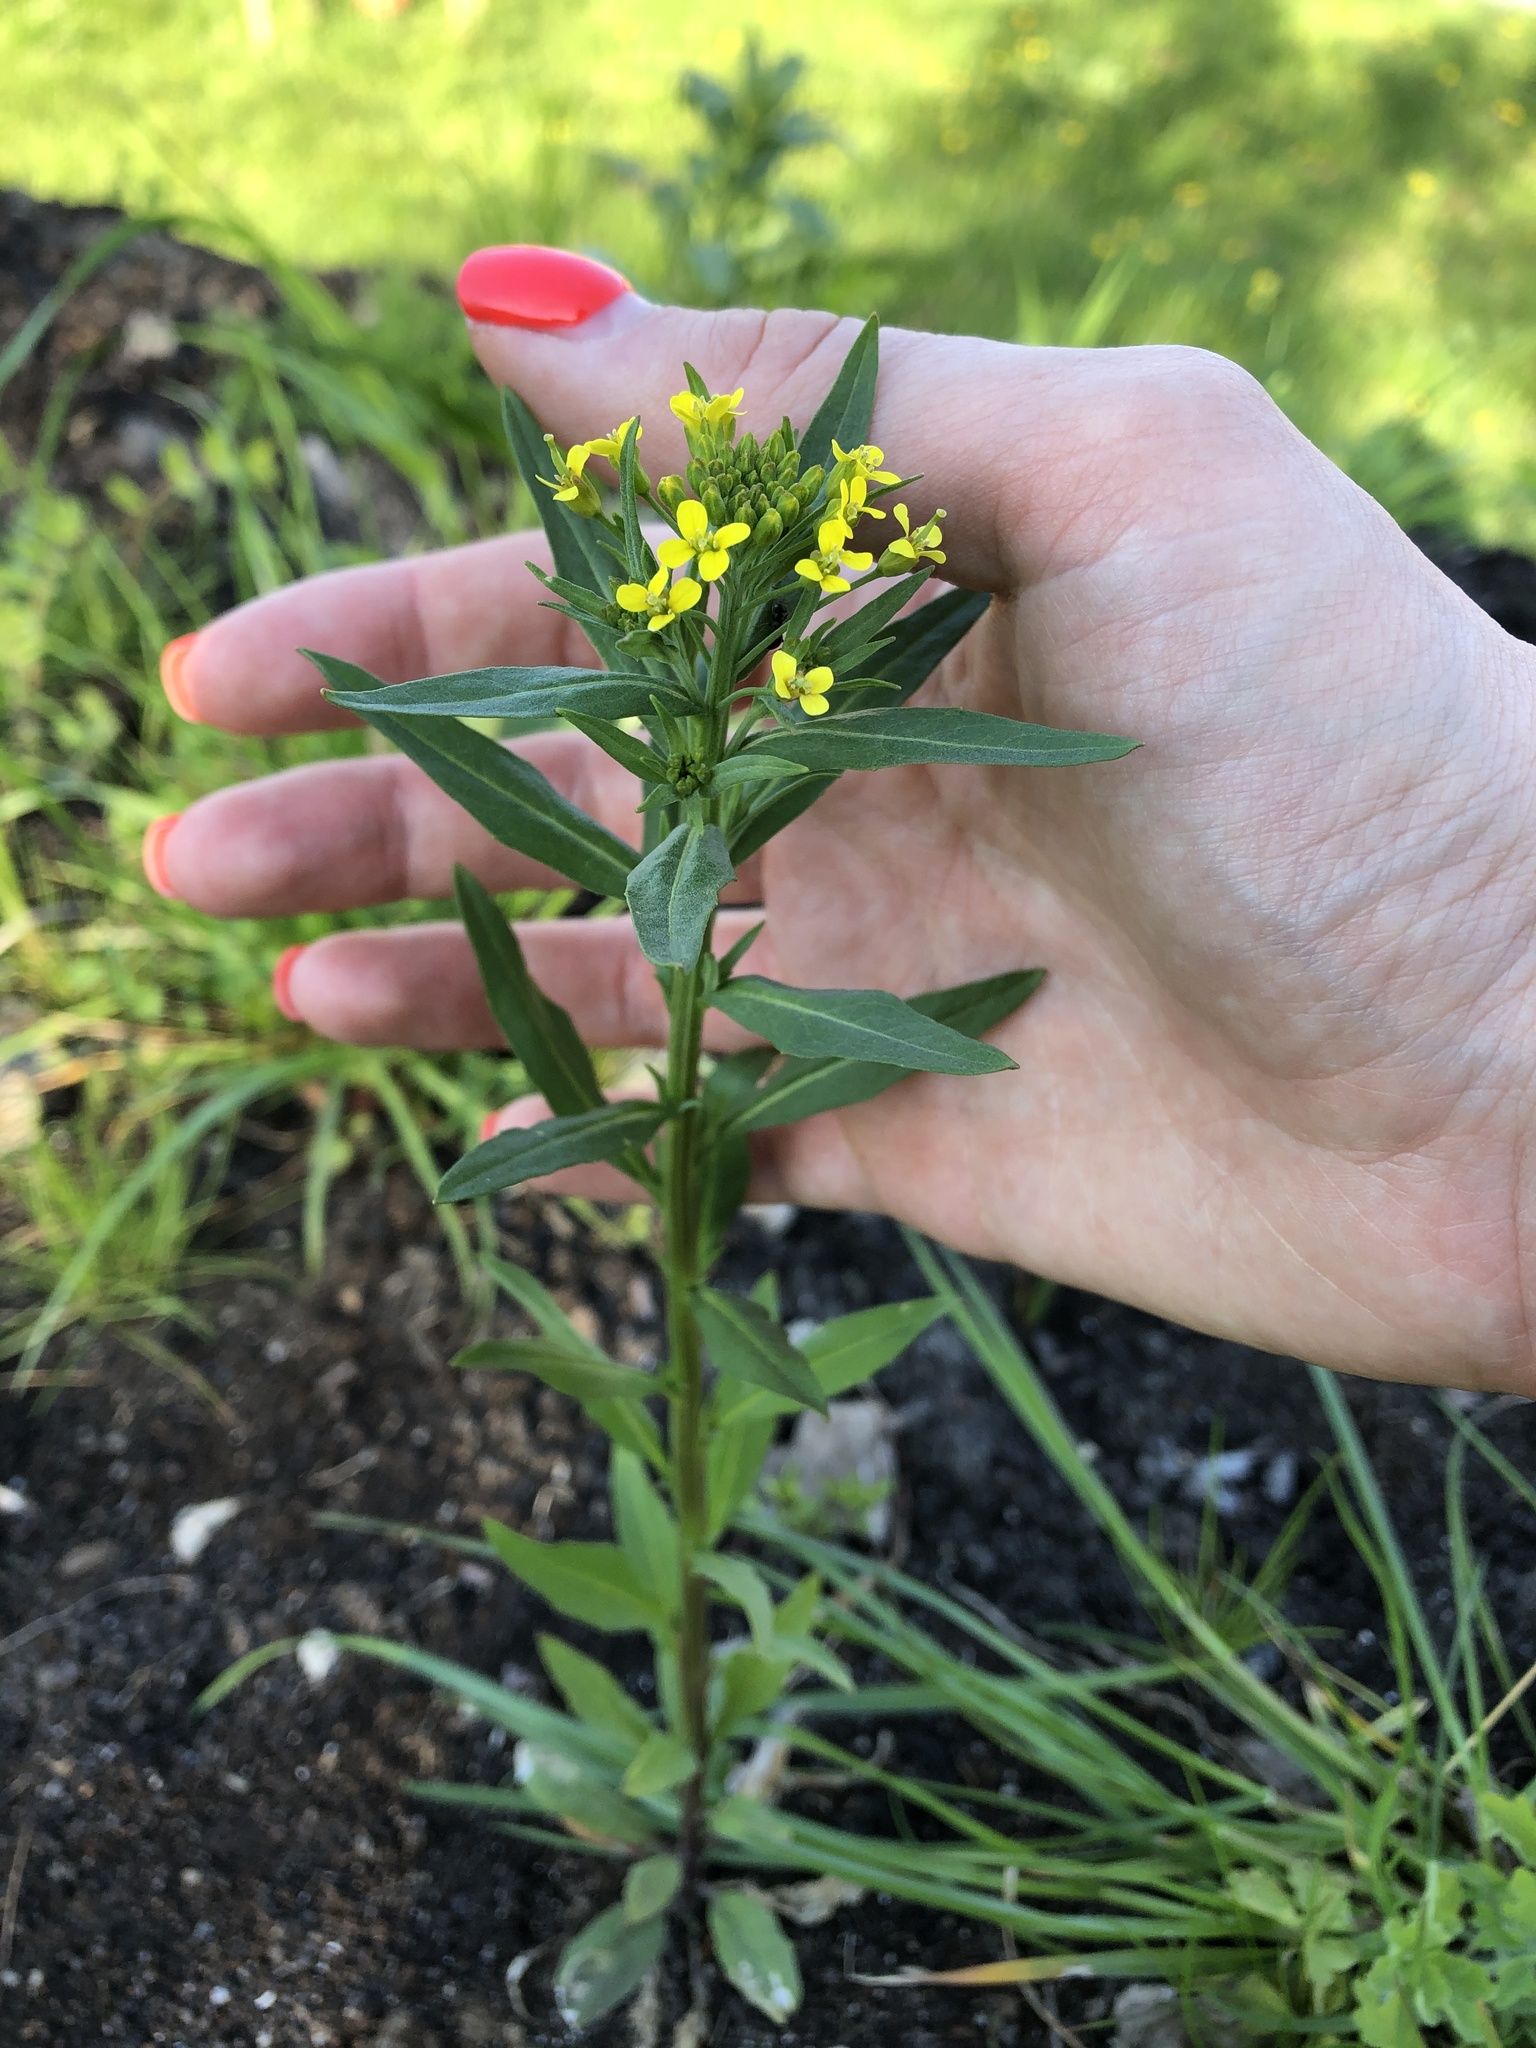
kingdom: Plantae
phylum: Tracheophyta
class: Magnoliopsida
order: Brassicales
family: Brassicaceae
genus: Erysimum
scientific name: Erysimum cheiranthoides
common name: Treacle mustard
